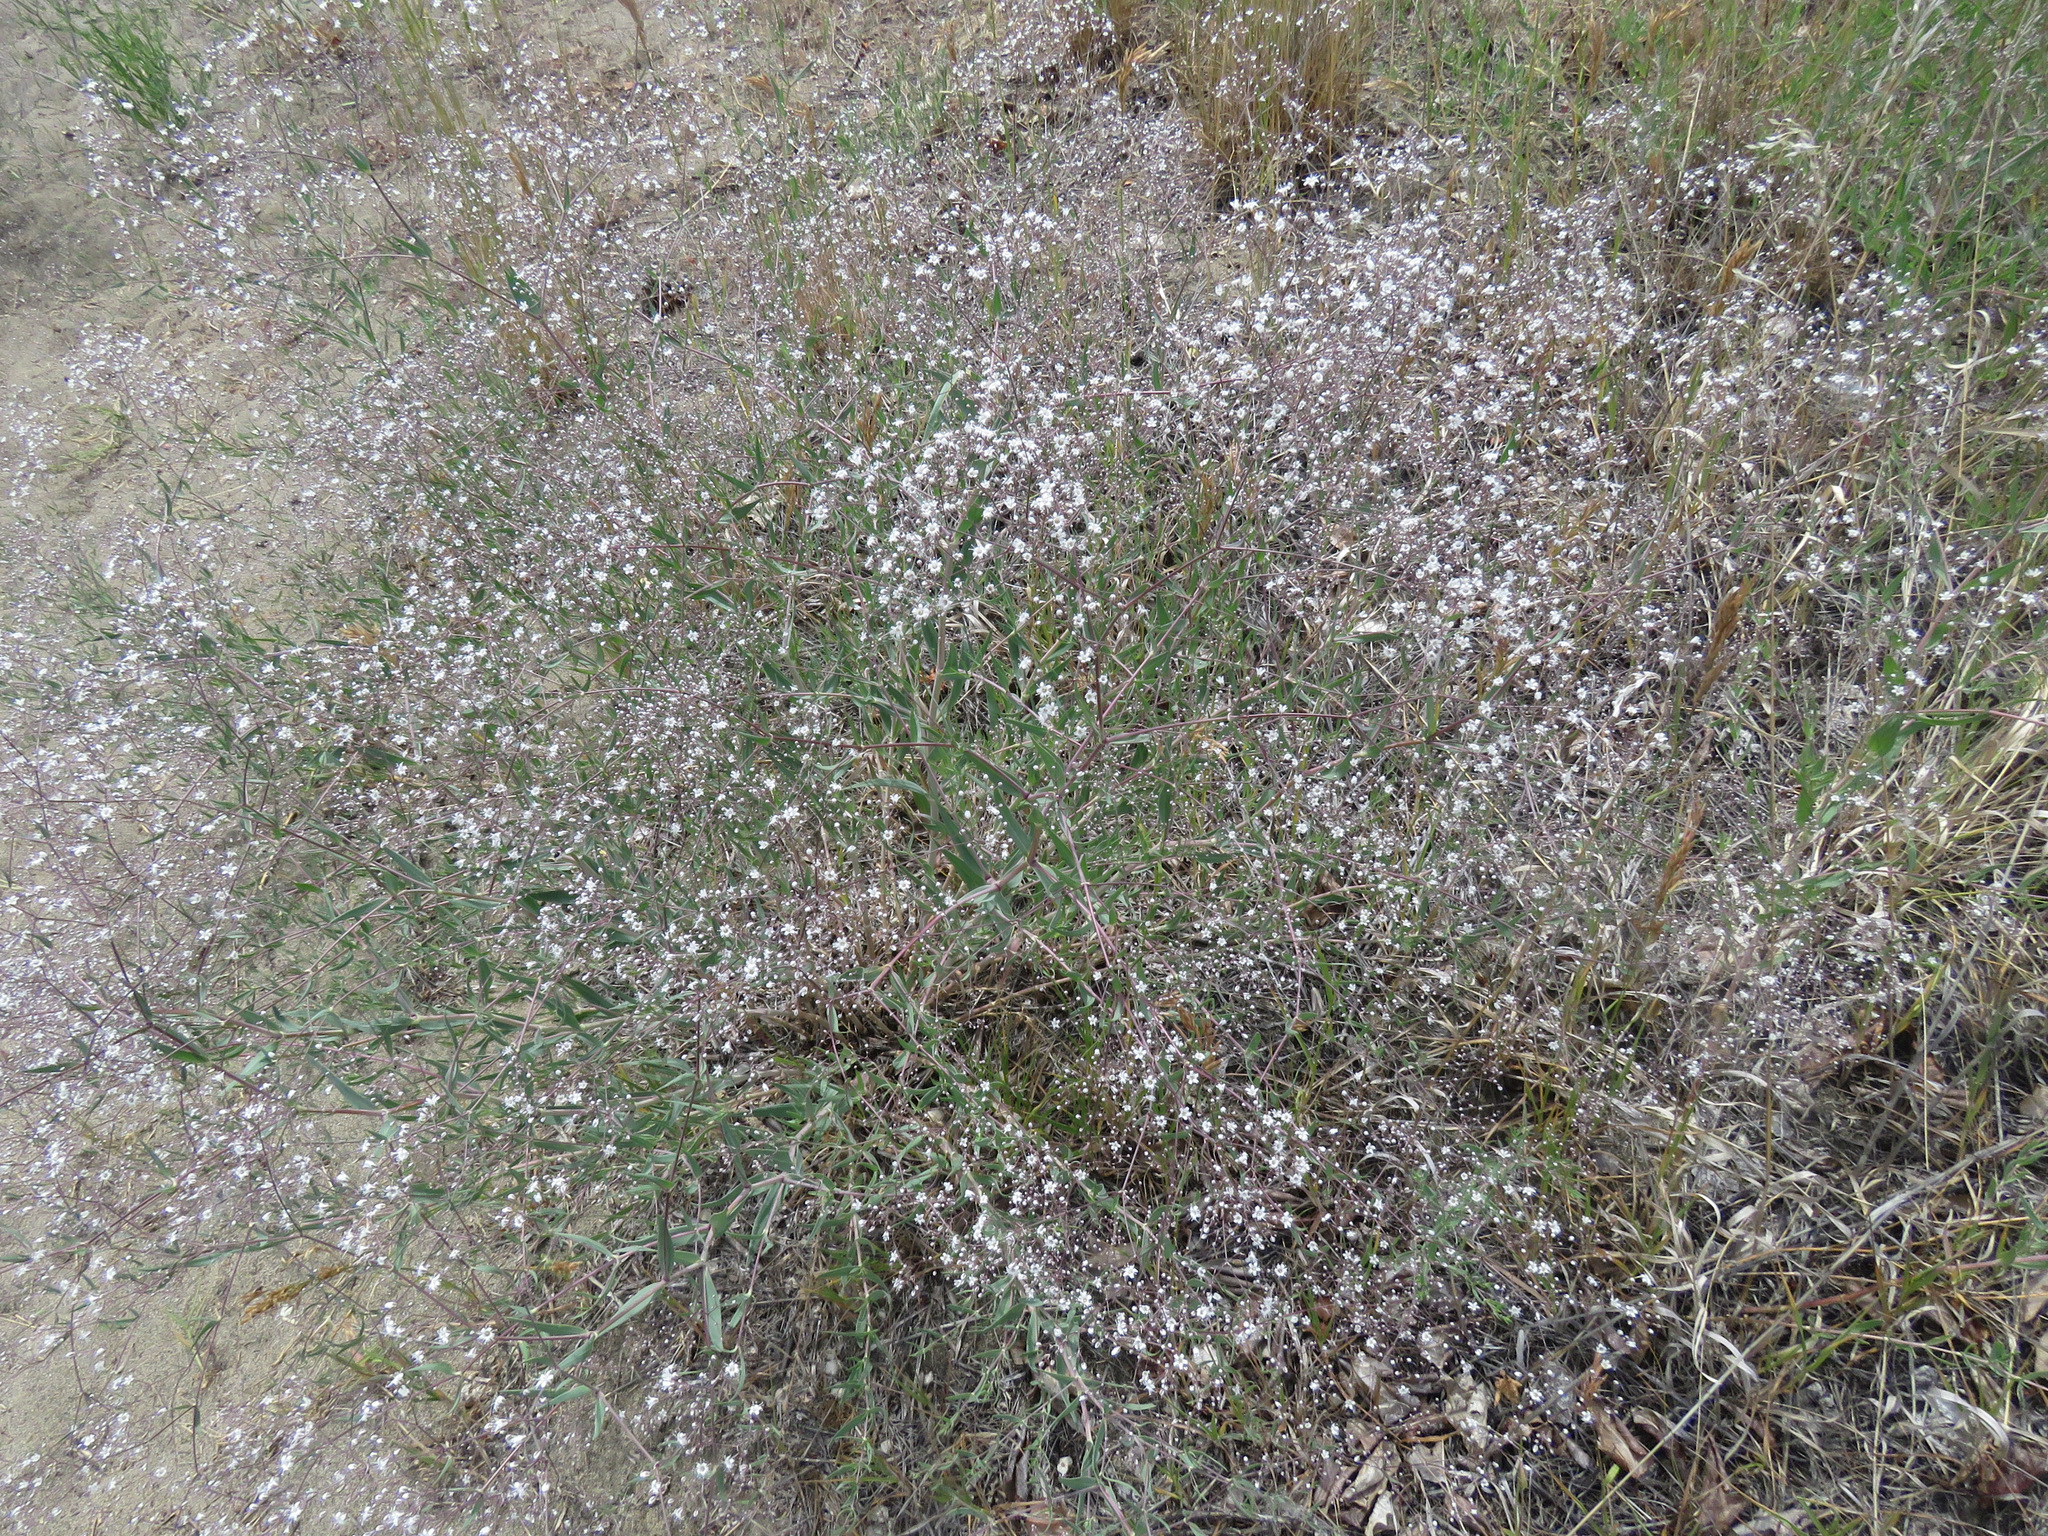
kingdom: Plantae
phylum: Tracheophyta
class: Magnoliopsida
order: Caryophyllales
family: Caryophyllaceae
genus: Gypsophila
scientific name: Gypsophila paniculata
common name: Baby's-breath
